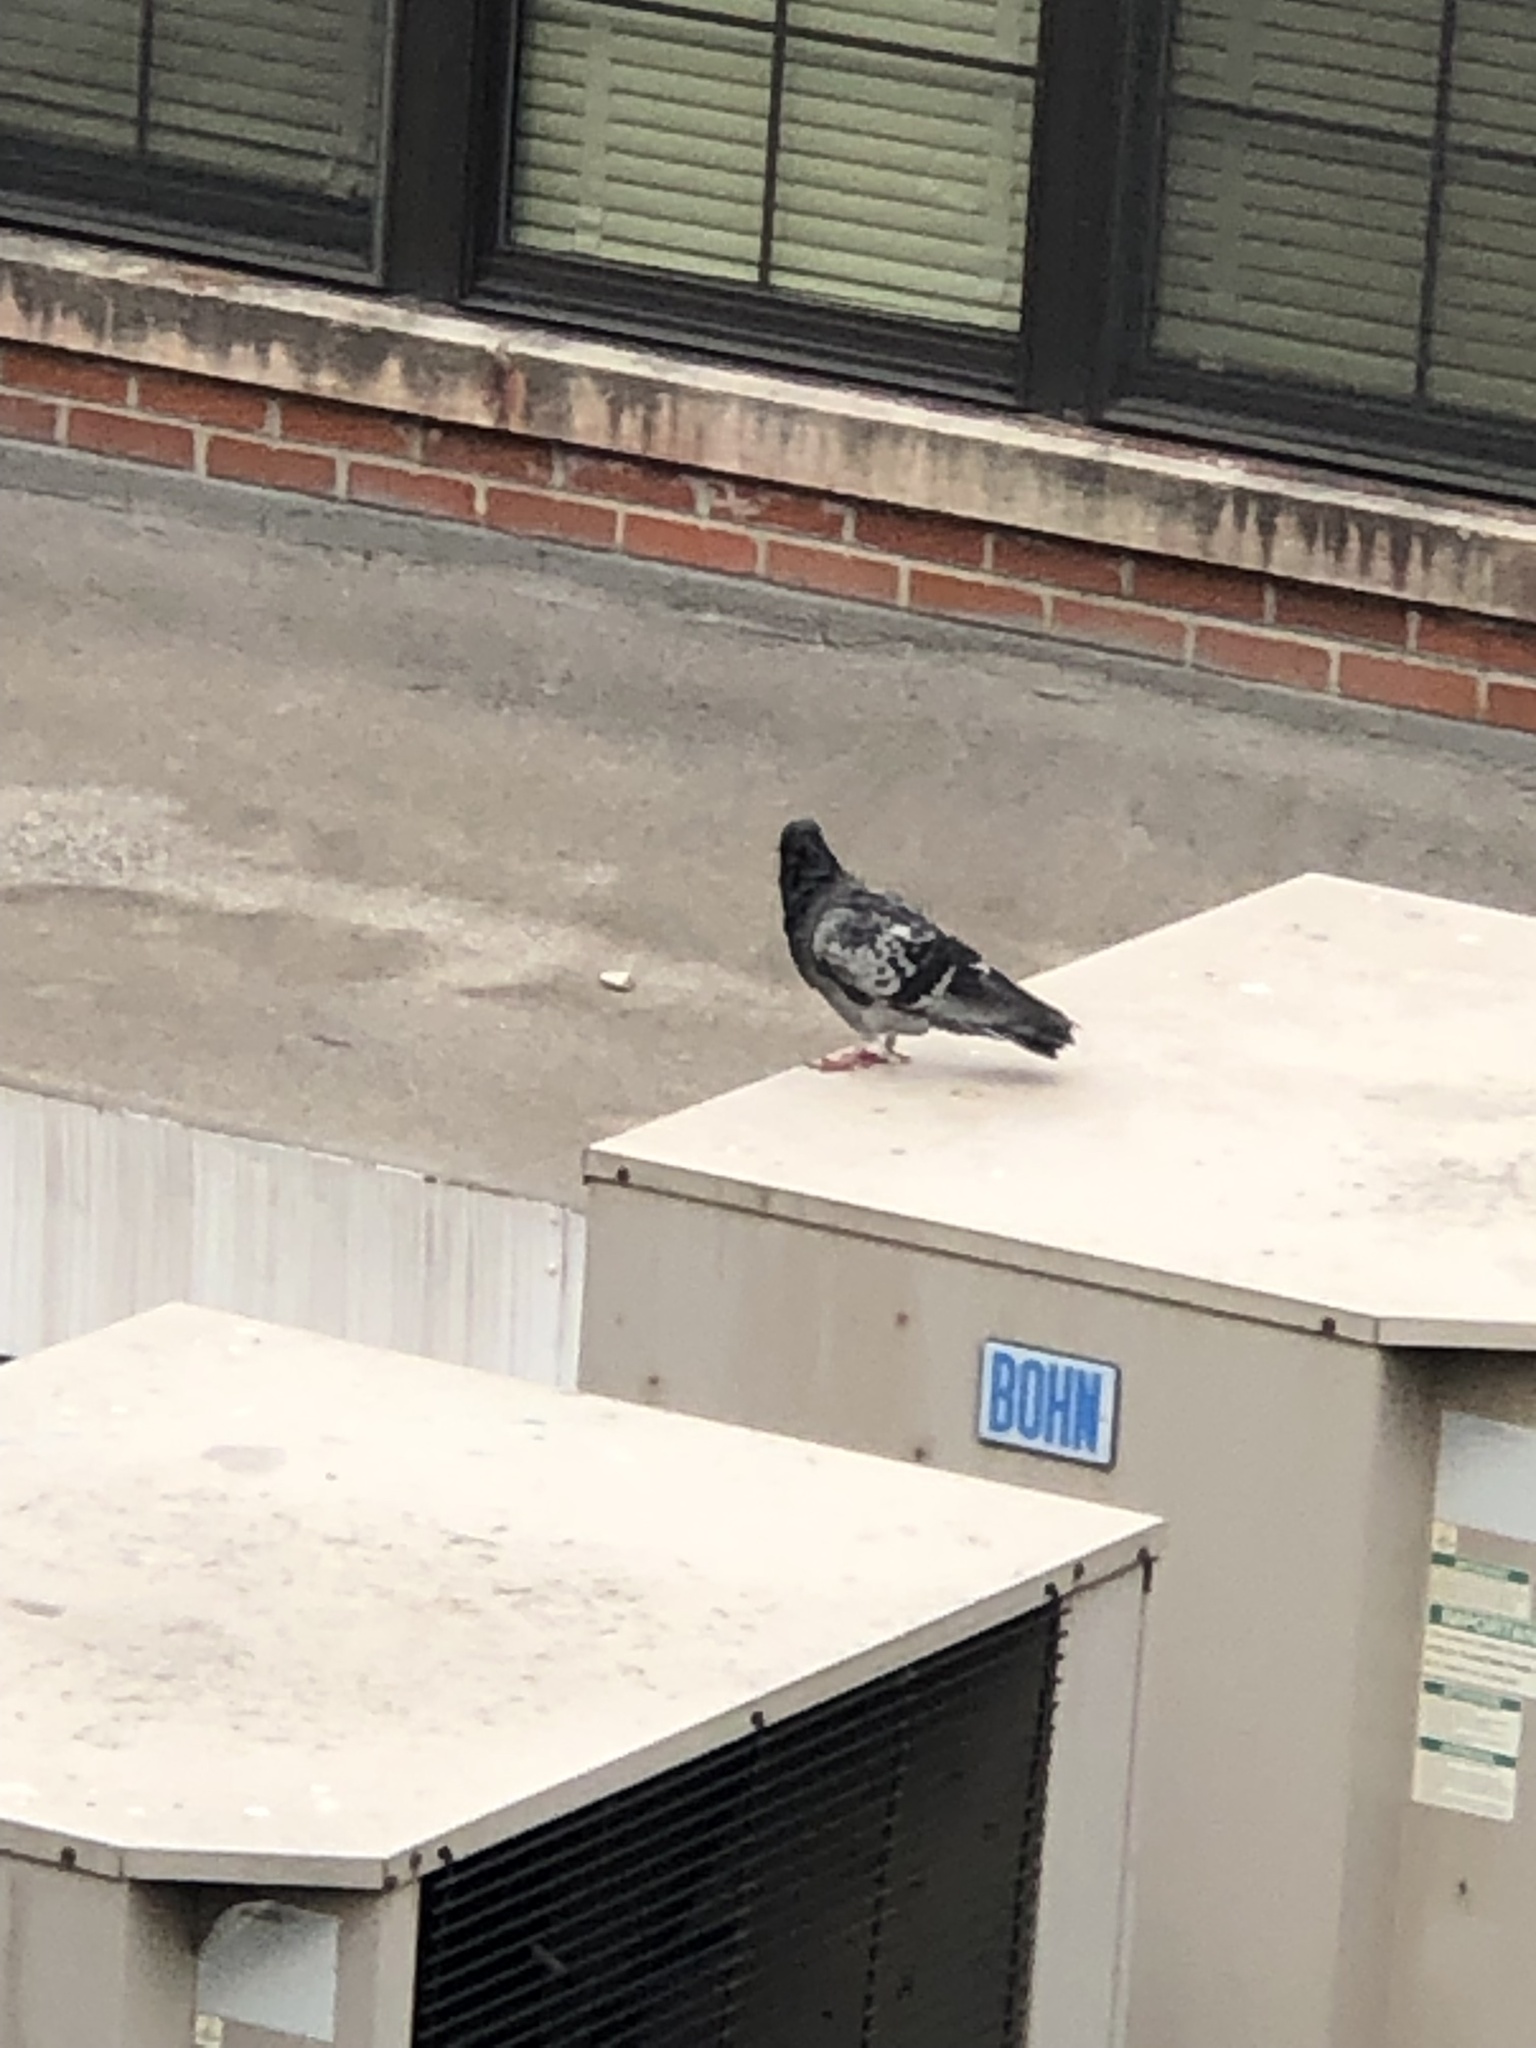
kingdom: Animalia
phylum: Chordata
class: Aves
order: Columbiformes
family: Columbidae
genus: Columba
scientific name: Columba livia
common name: Rock pigeon
